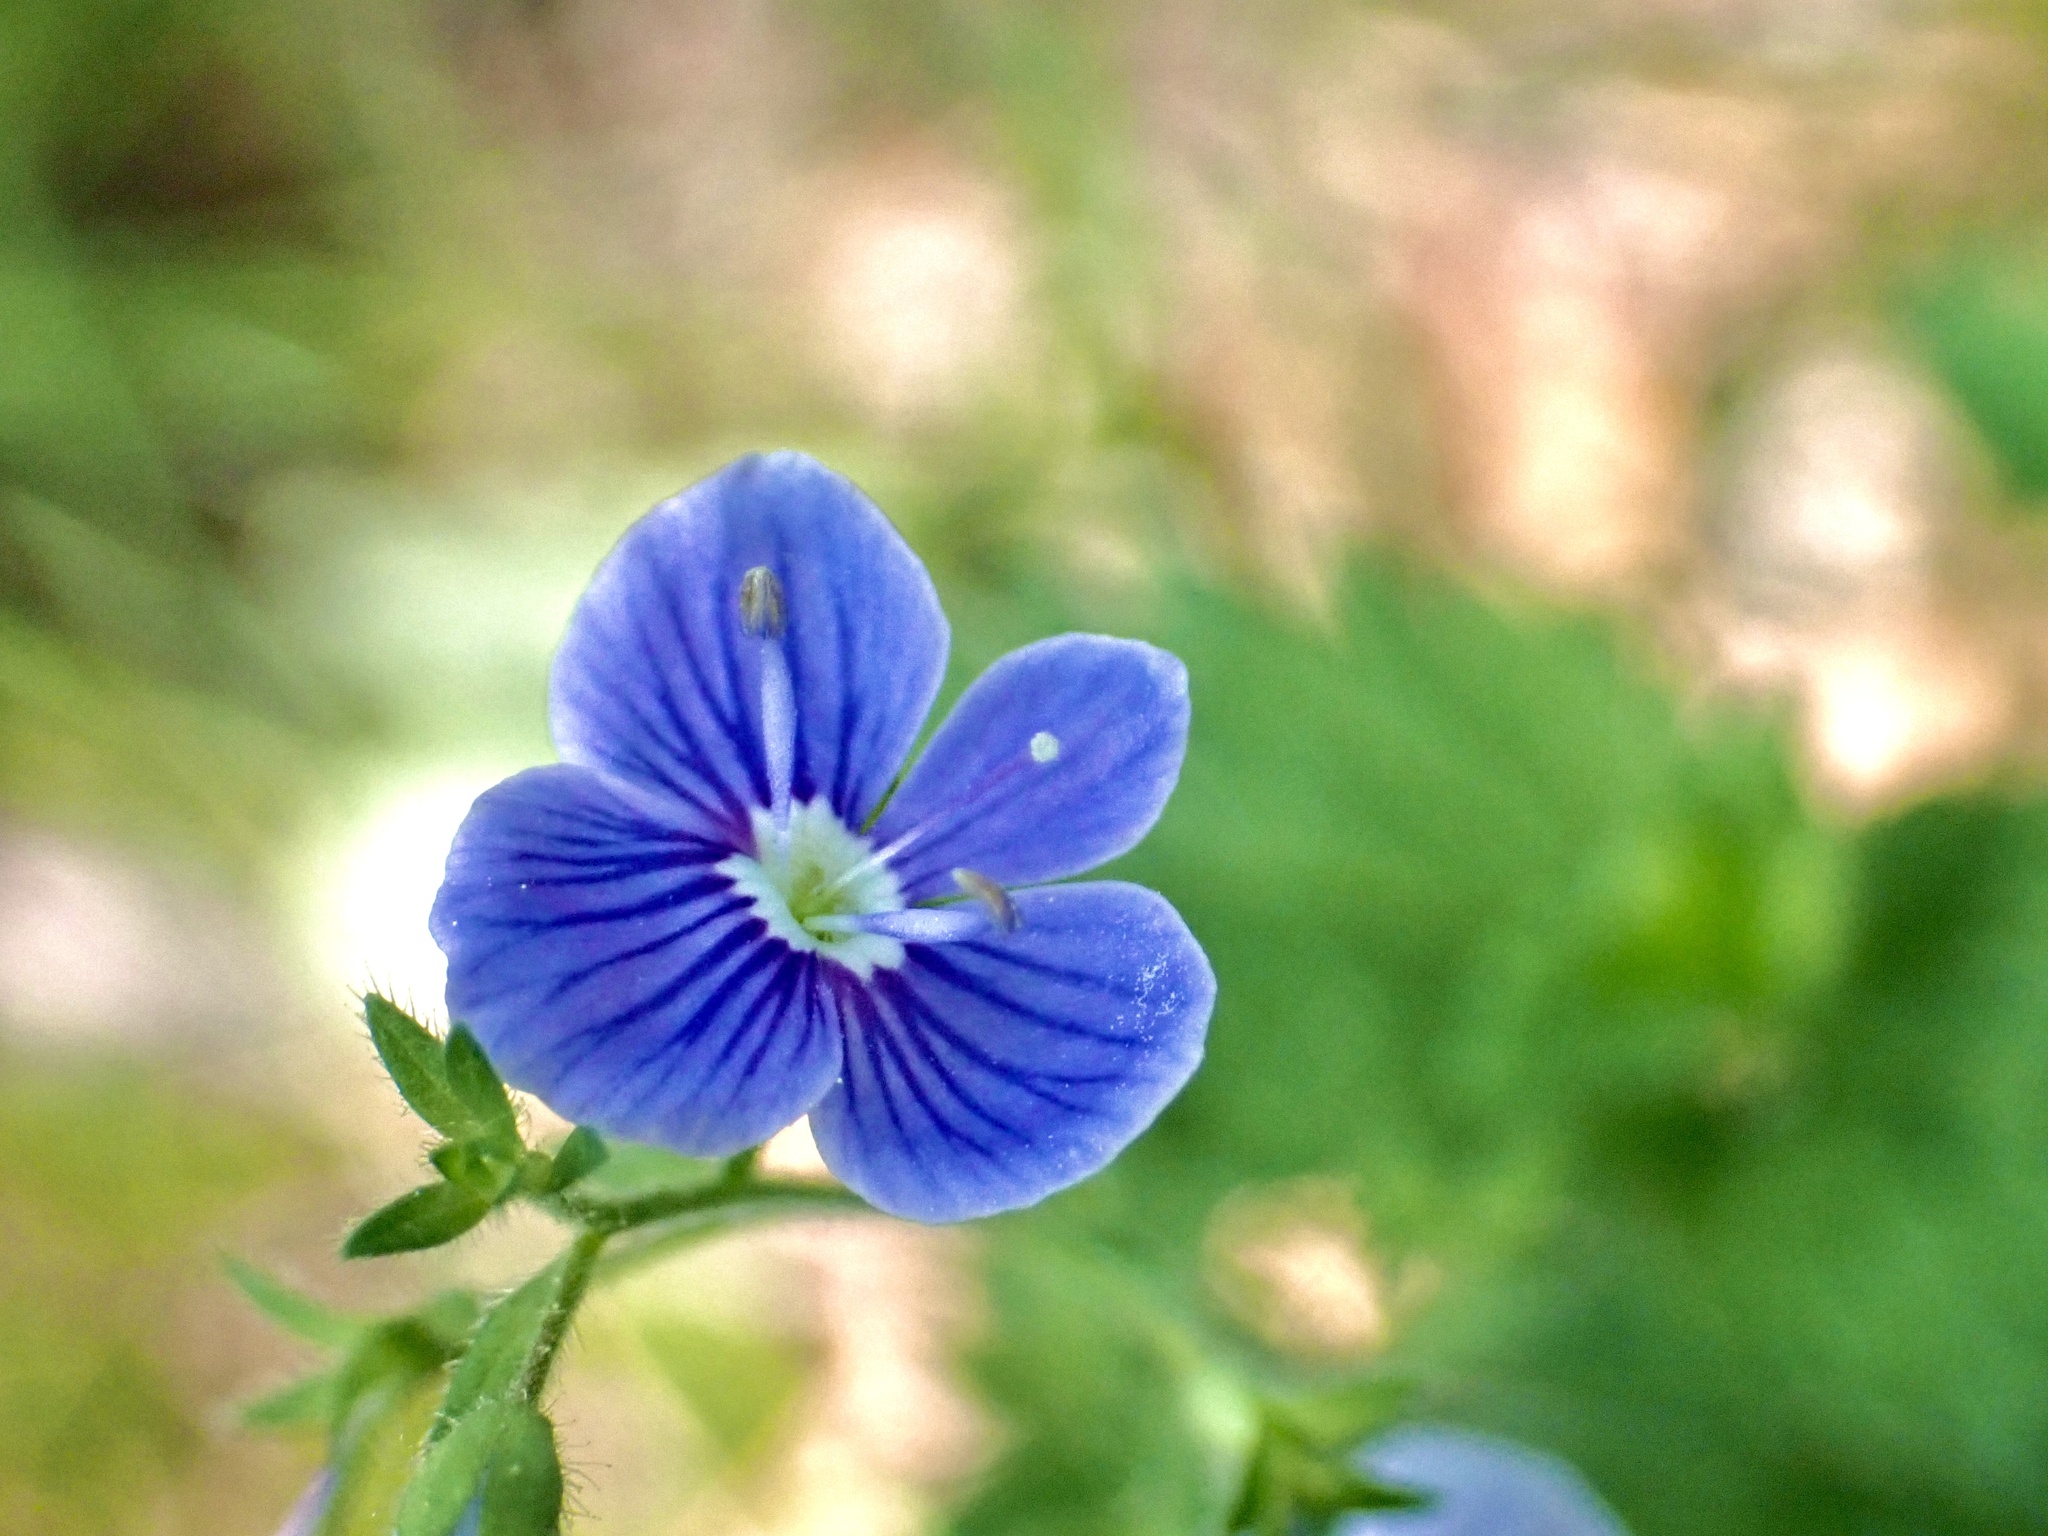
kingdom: Plantae
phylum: Tracheophyta
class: Magnoliopsida
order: Lamiales
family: Plantaginaceae
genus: Veronica
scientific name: Veronica chamaedrys
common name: Germander speedwell
